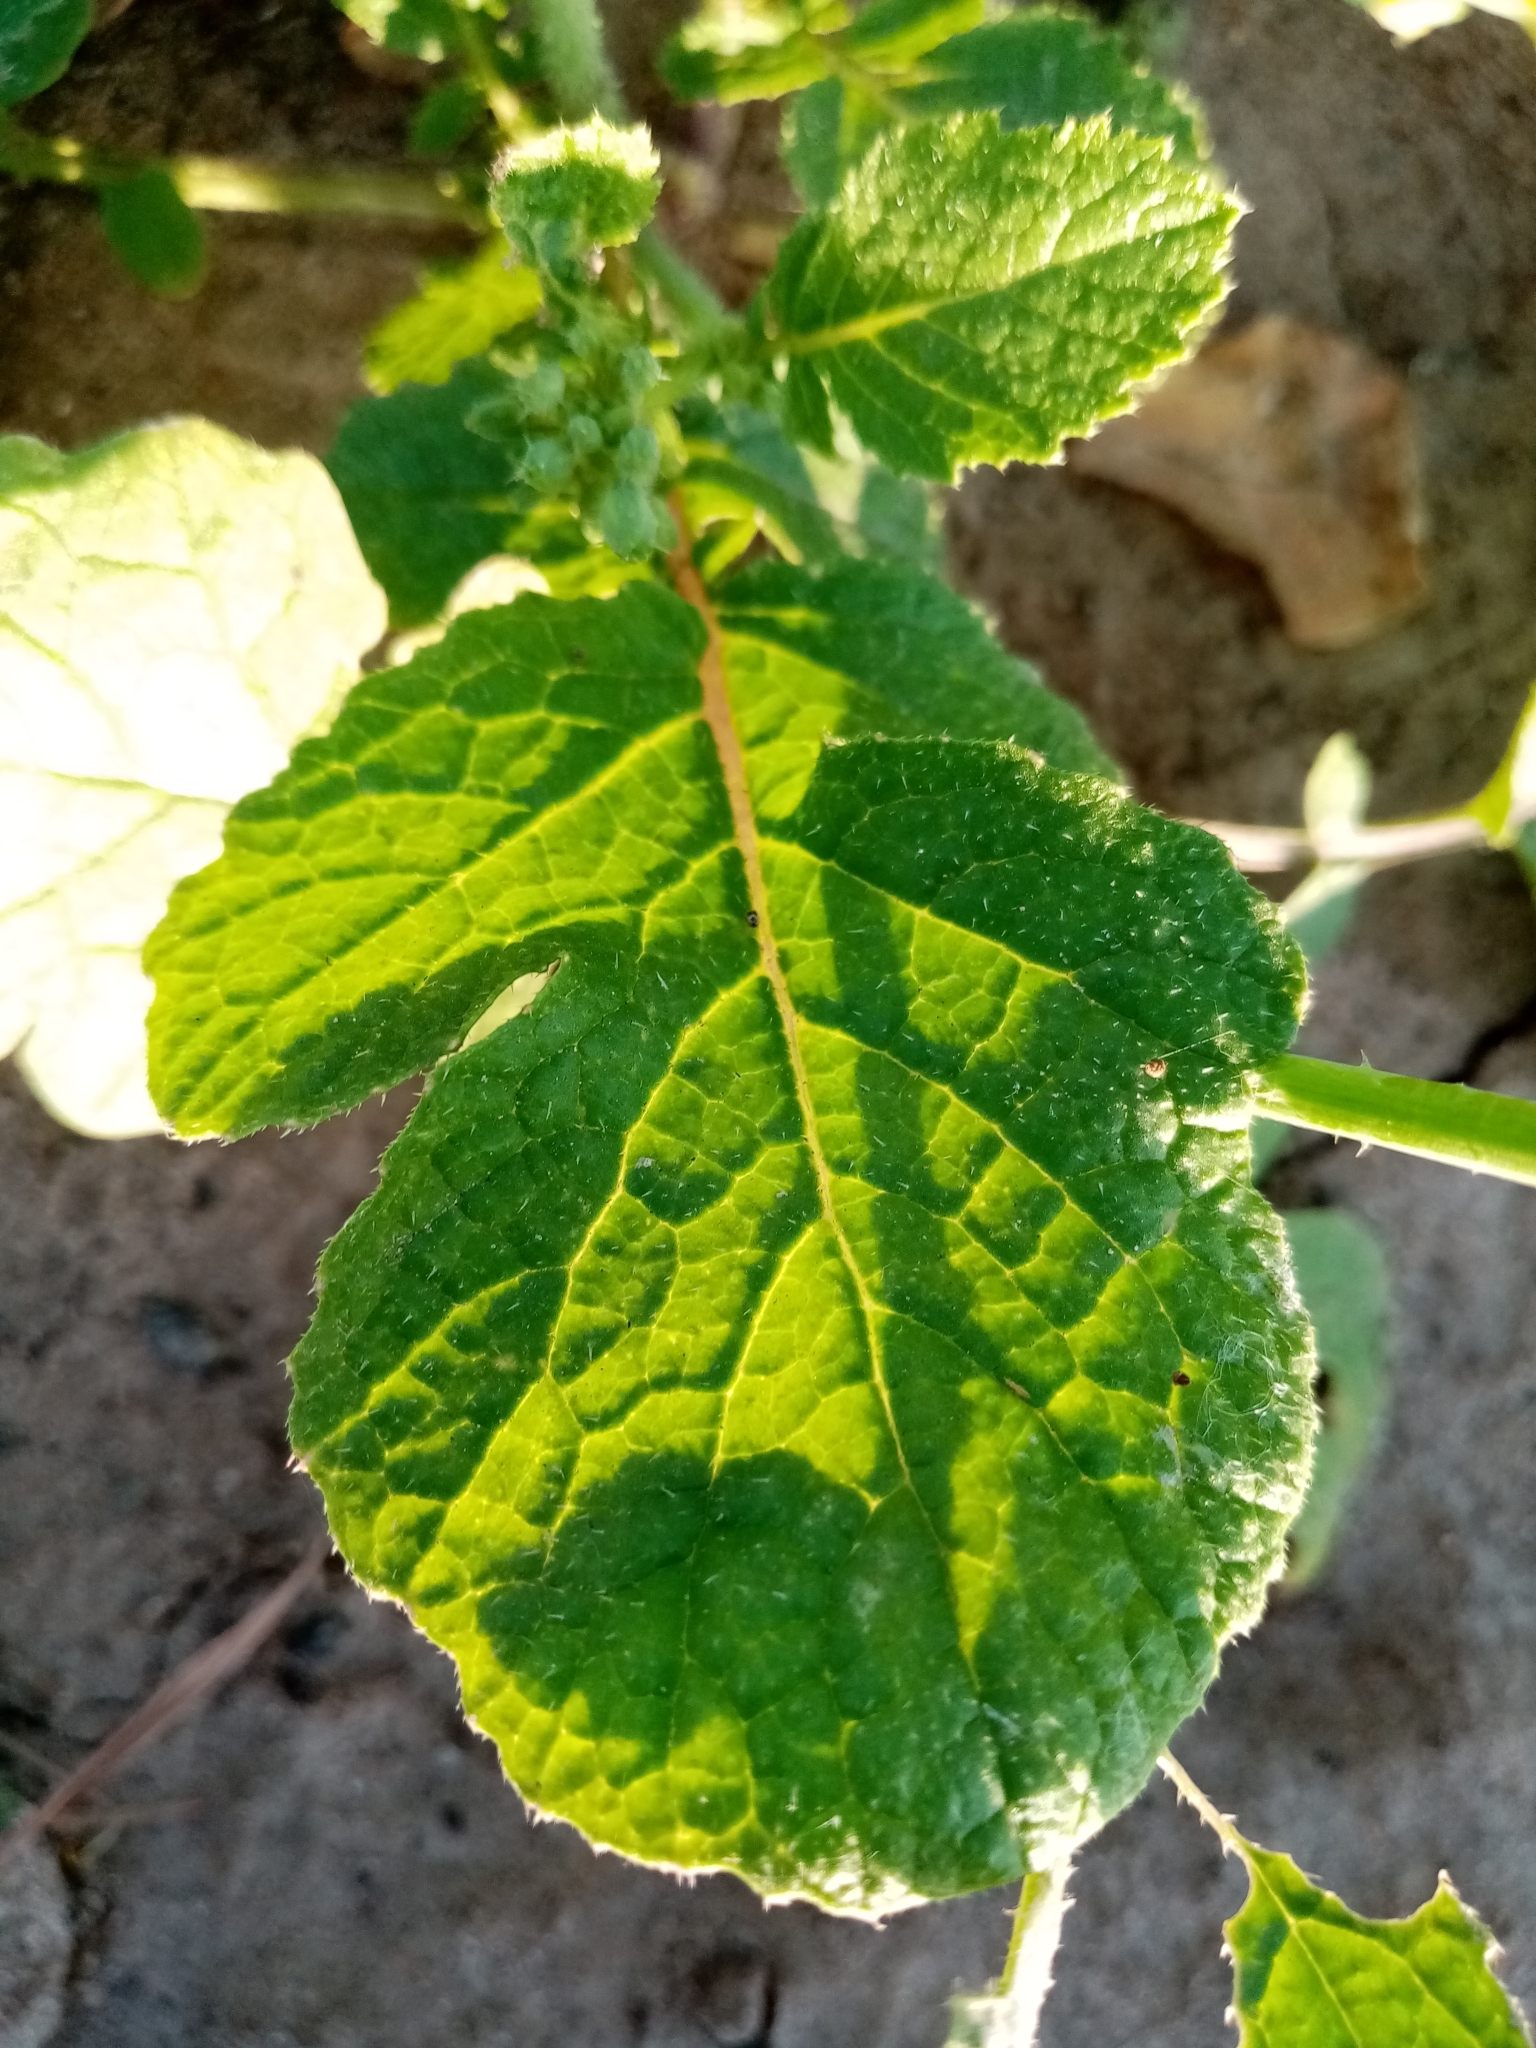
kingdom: Plantae
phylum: Tracheophyta
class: Magnoliopsida
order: Brassicales
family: Brassicaceae
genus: Raphanus
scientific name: Raphanus raphanistrum
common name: Wild radish
